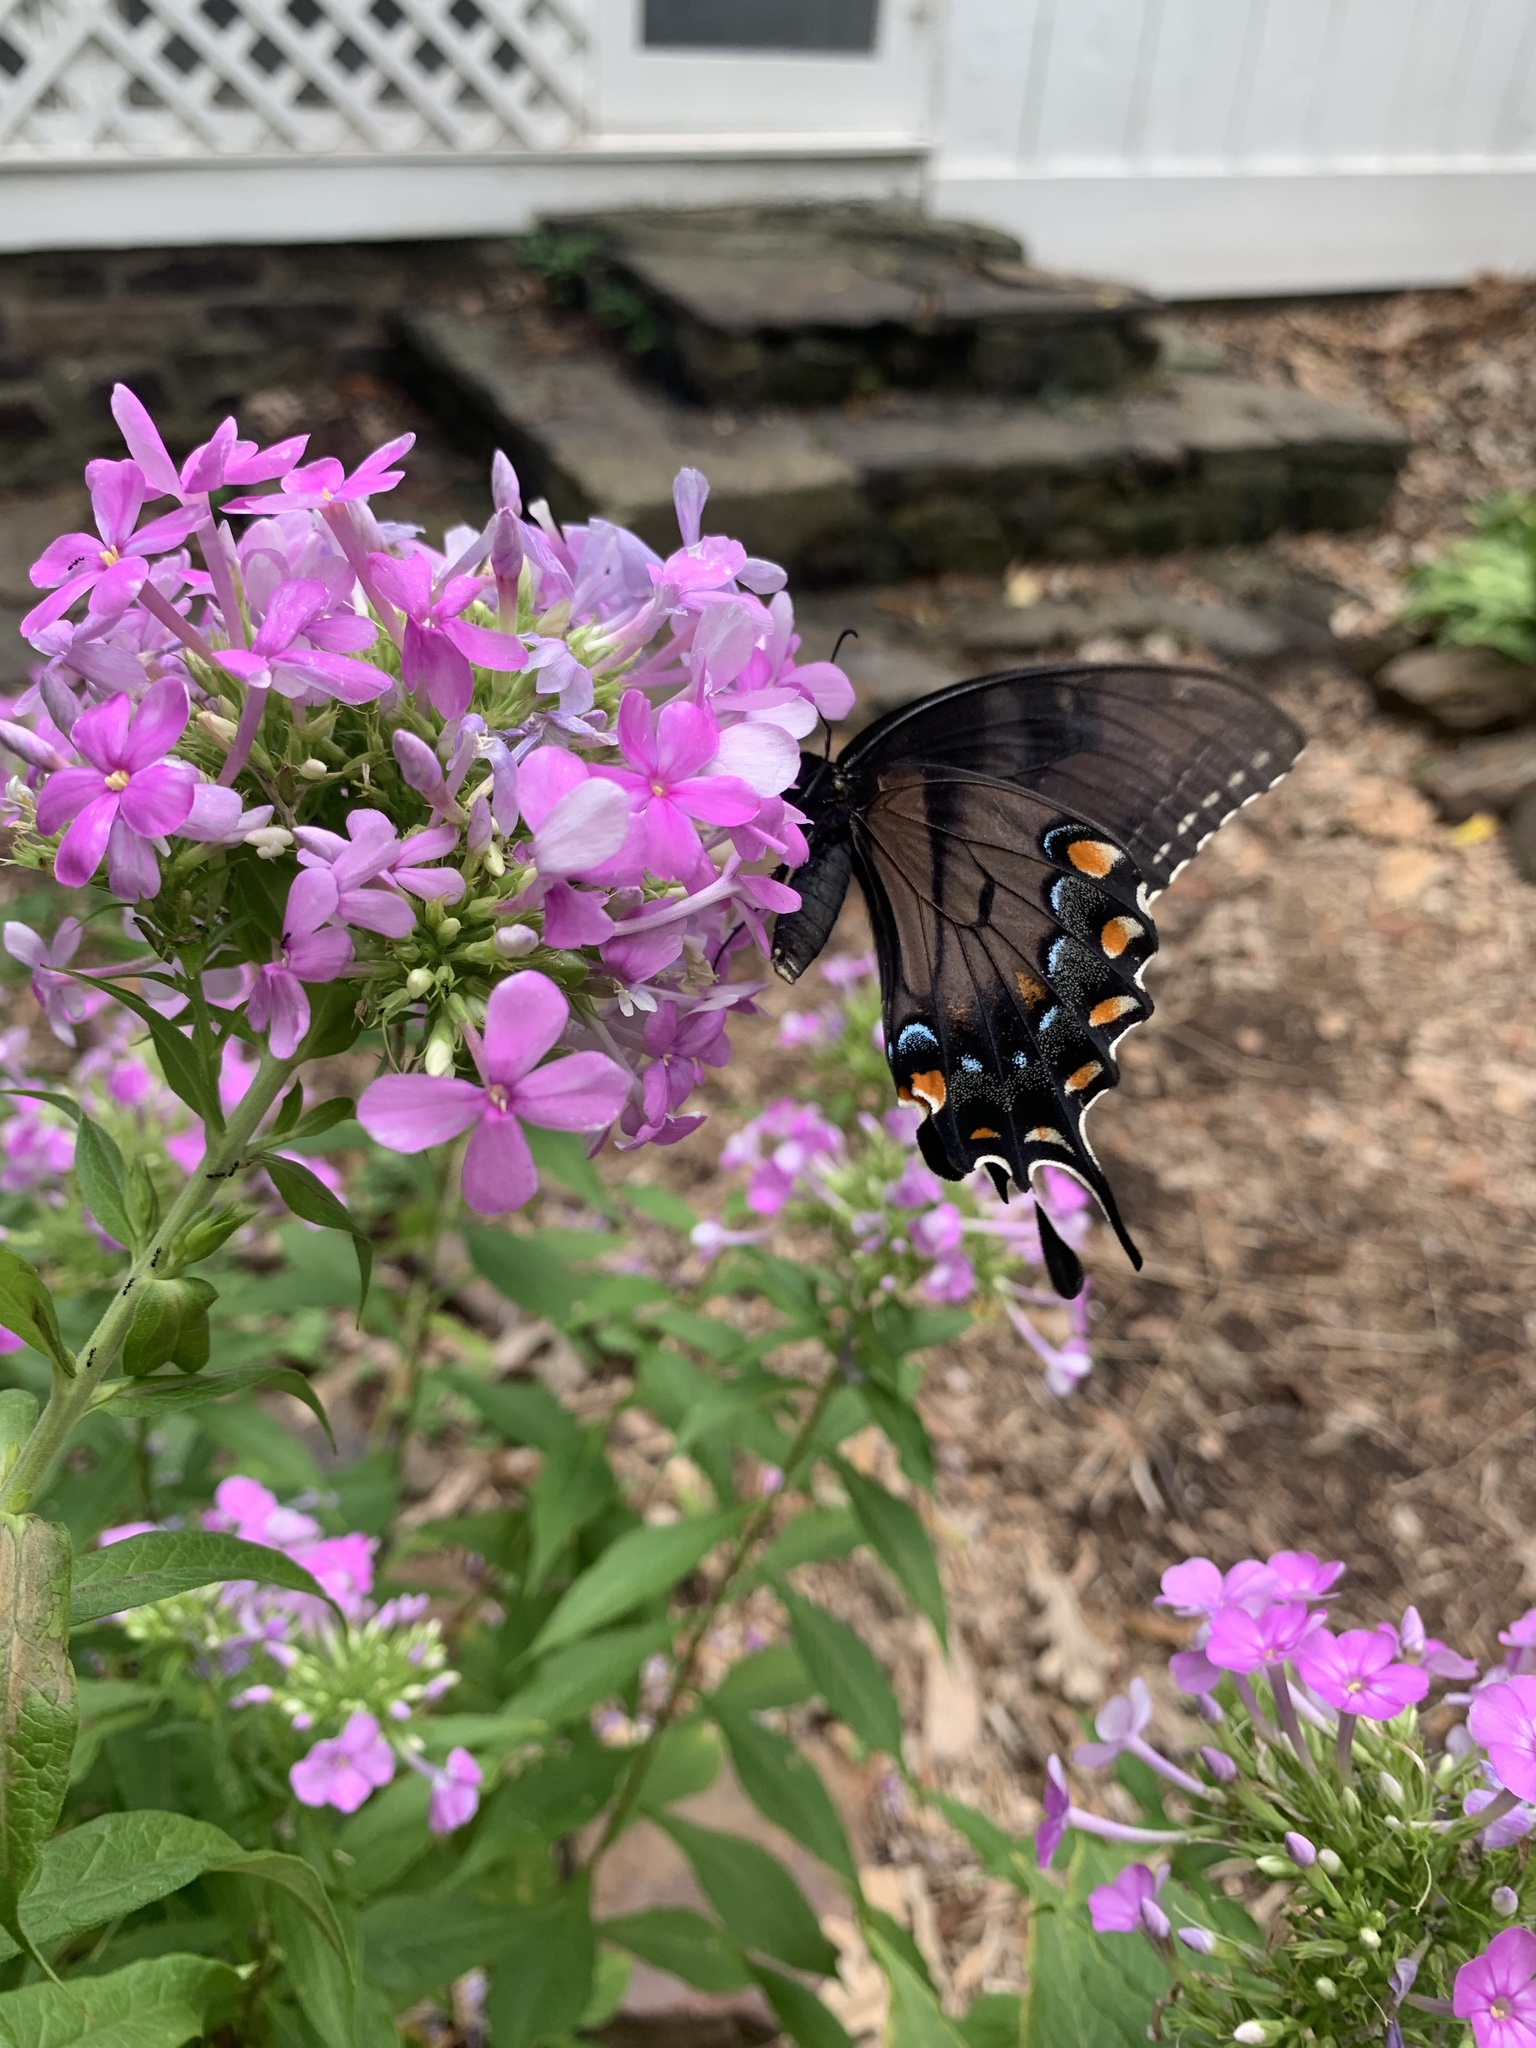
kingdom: Animalia
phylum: Arthropoda
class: Insecta
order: Lepidoptera
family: Papilionidae
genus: Papilio
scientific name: Papilio glaucus
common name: Tiger swallowtail
